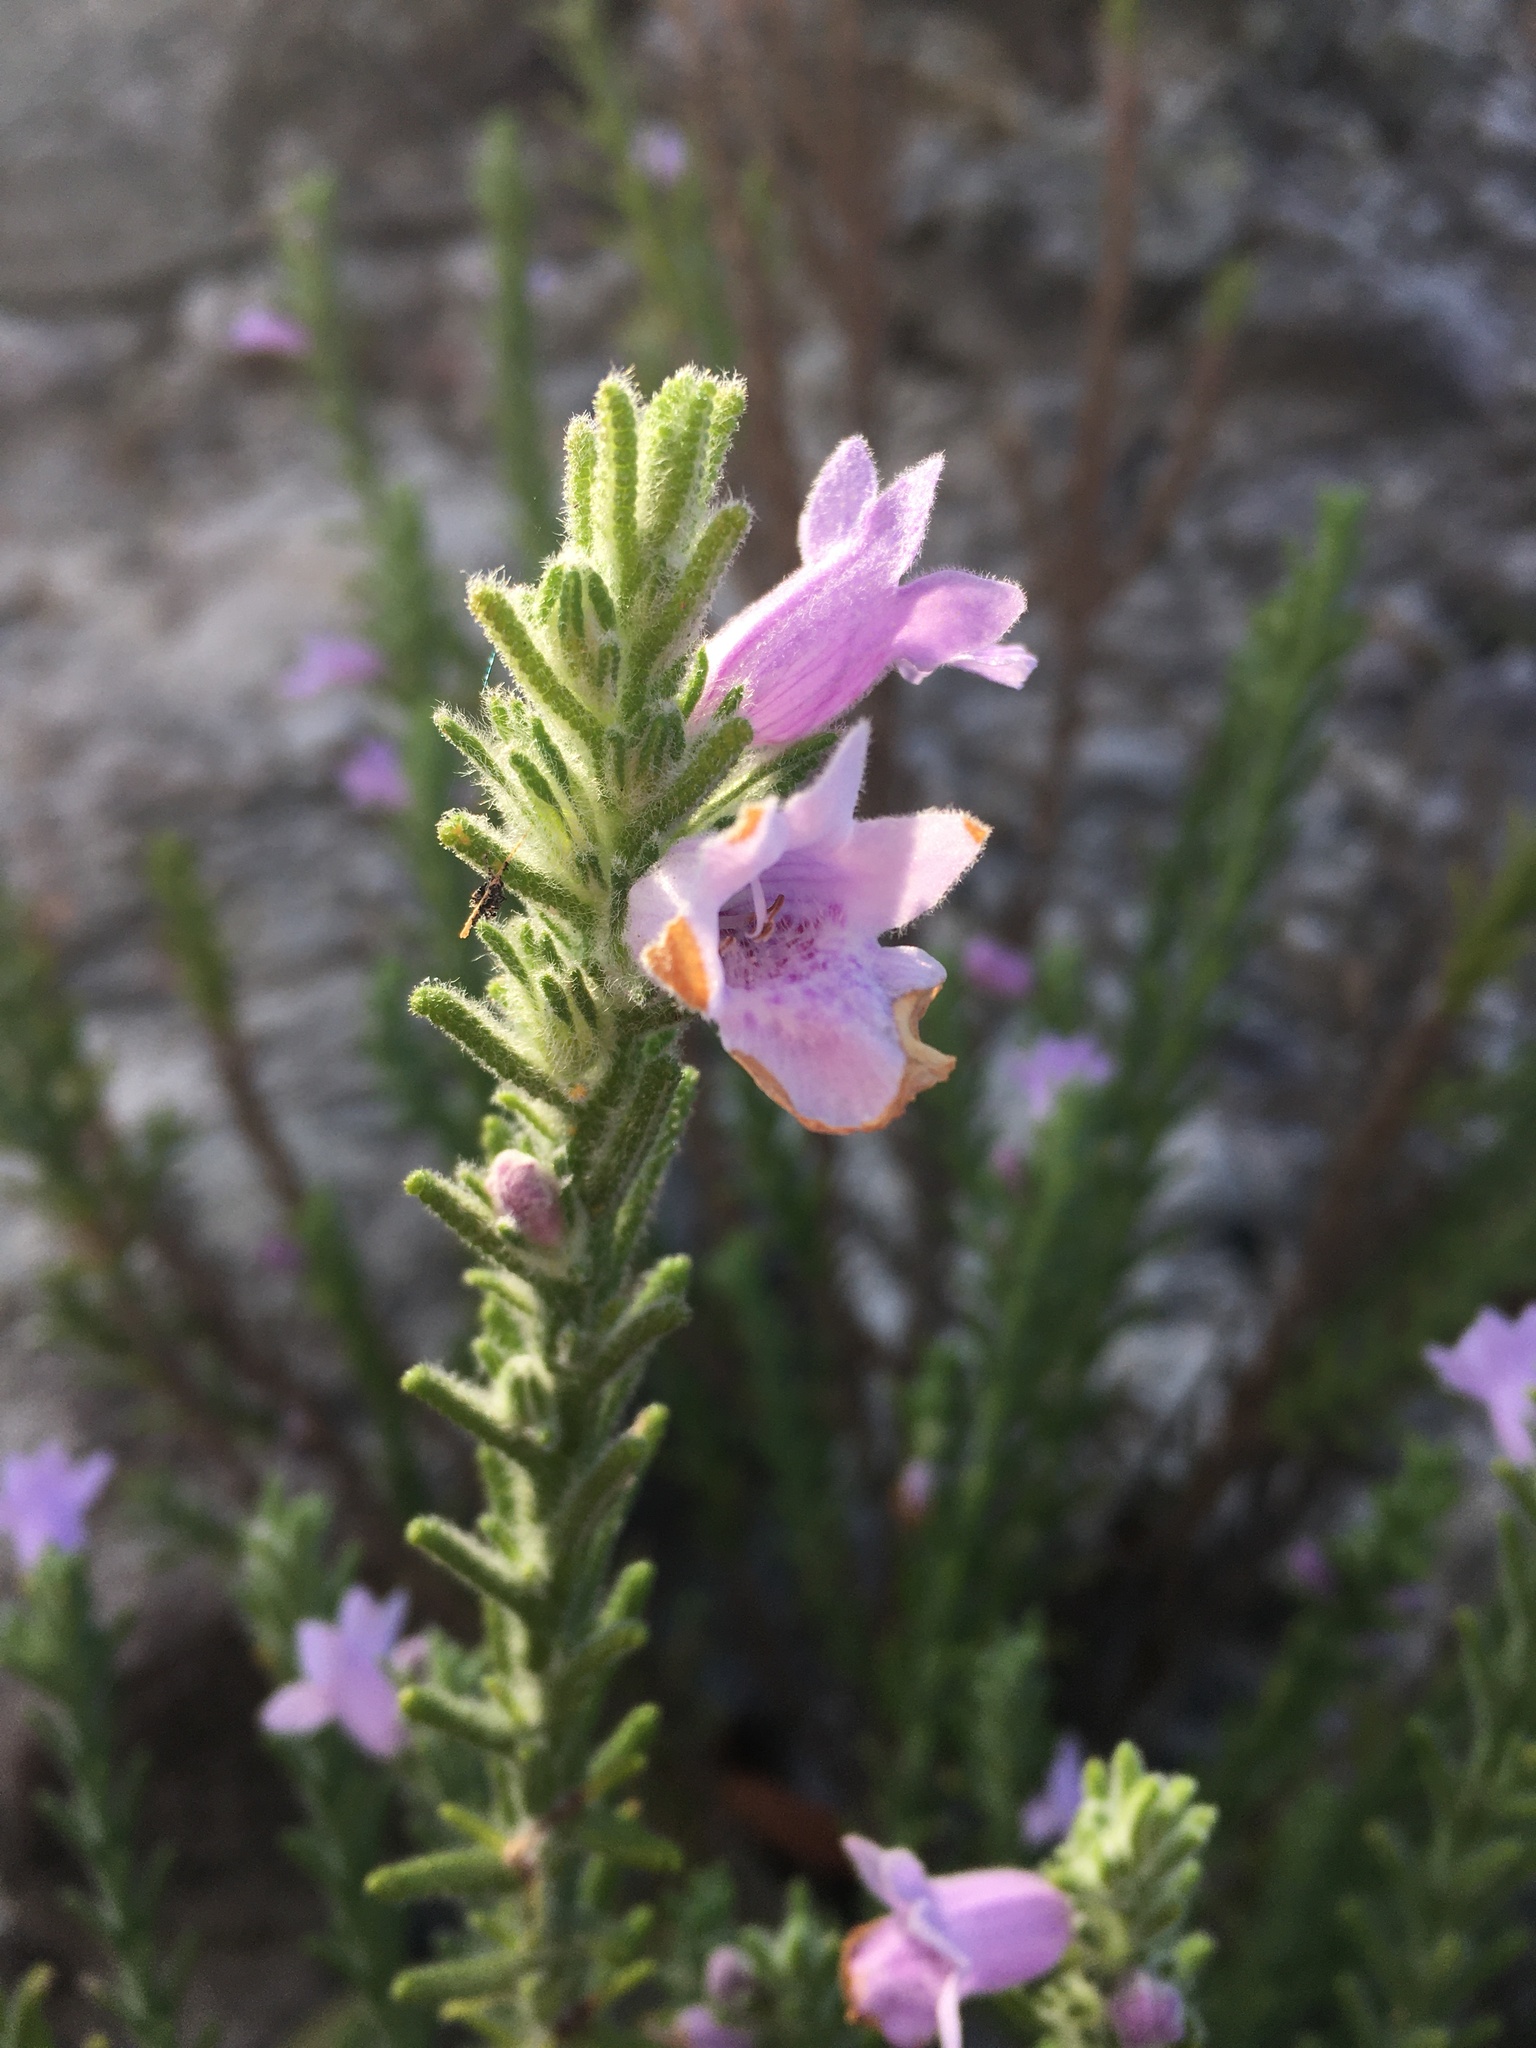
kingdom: Plantae
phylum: Tracheophyta
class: Magnoliopsida
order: Lamiales
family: Lamiaceae
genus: Chloanthes
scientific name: Chloanthes parviflora
